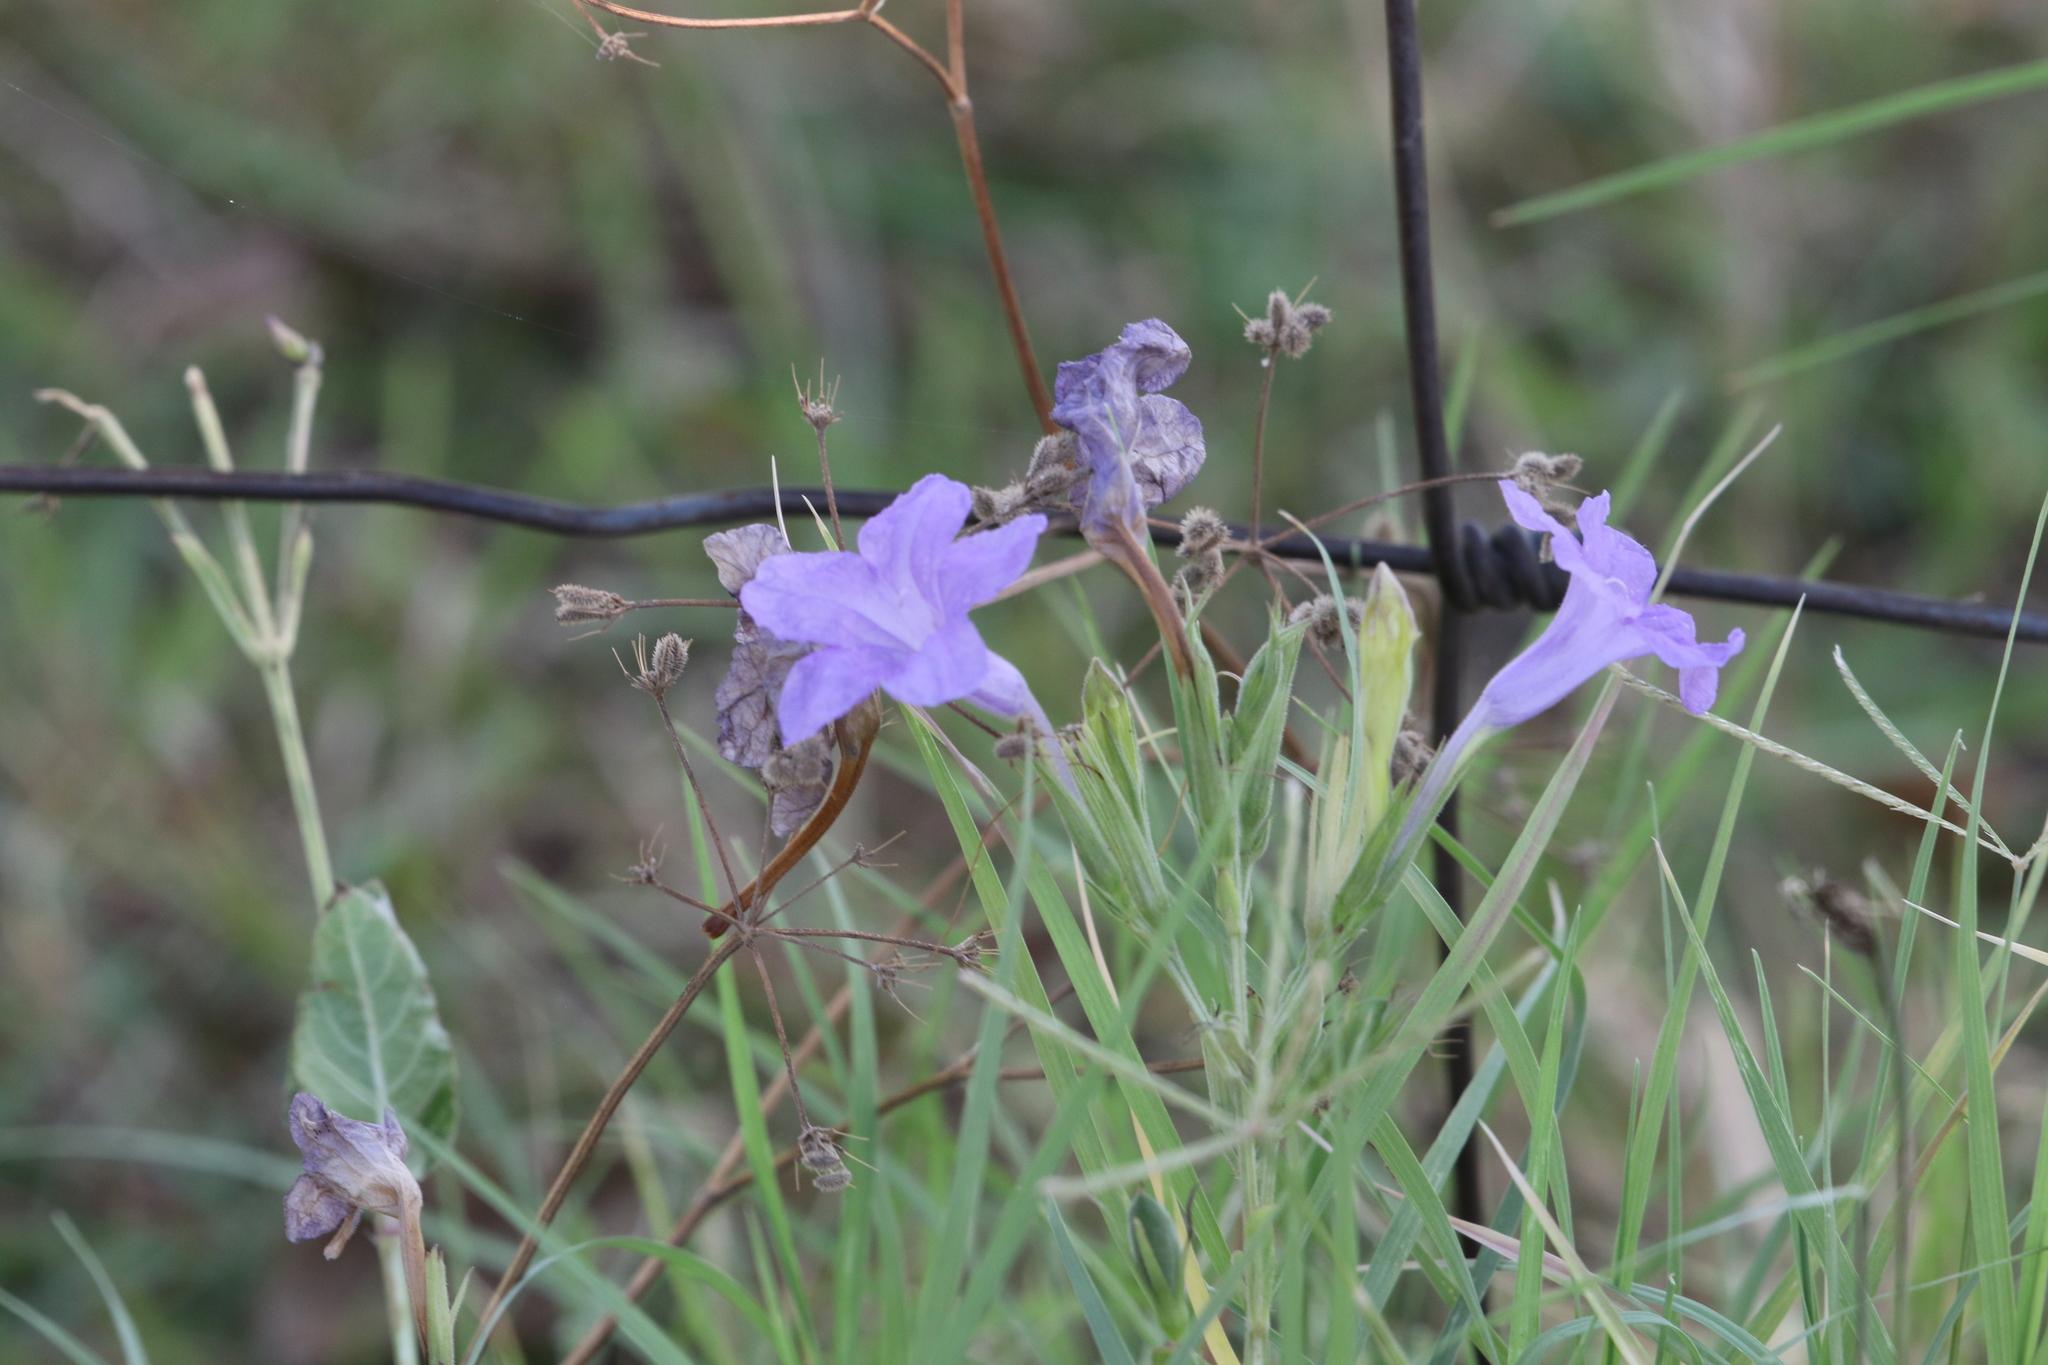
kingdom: Plantae
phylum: Tracheophyta
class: Magnoliopsida
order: Lamiales
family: Acanthaceae
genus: Ruellia
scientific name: Ruellia ciliatiflora
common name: Hairyflower wild petunia
